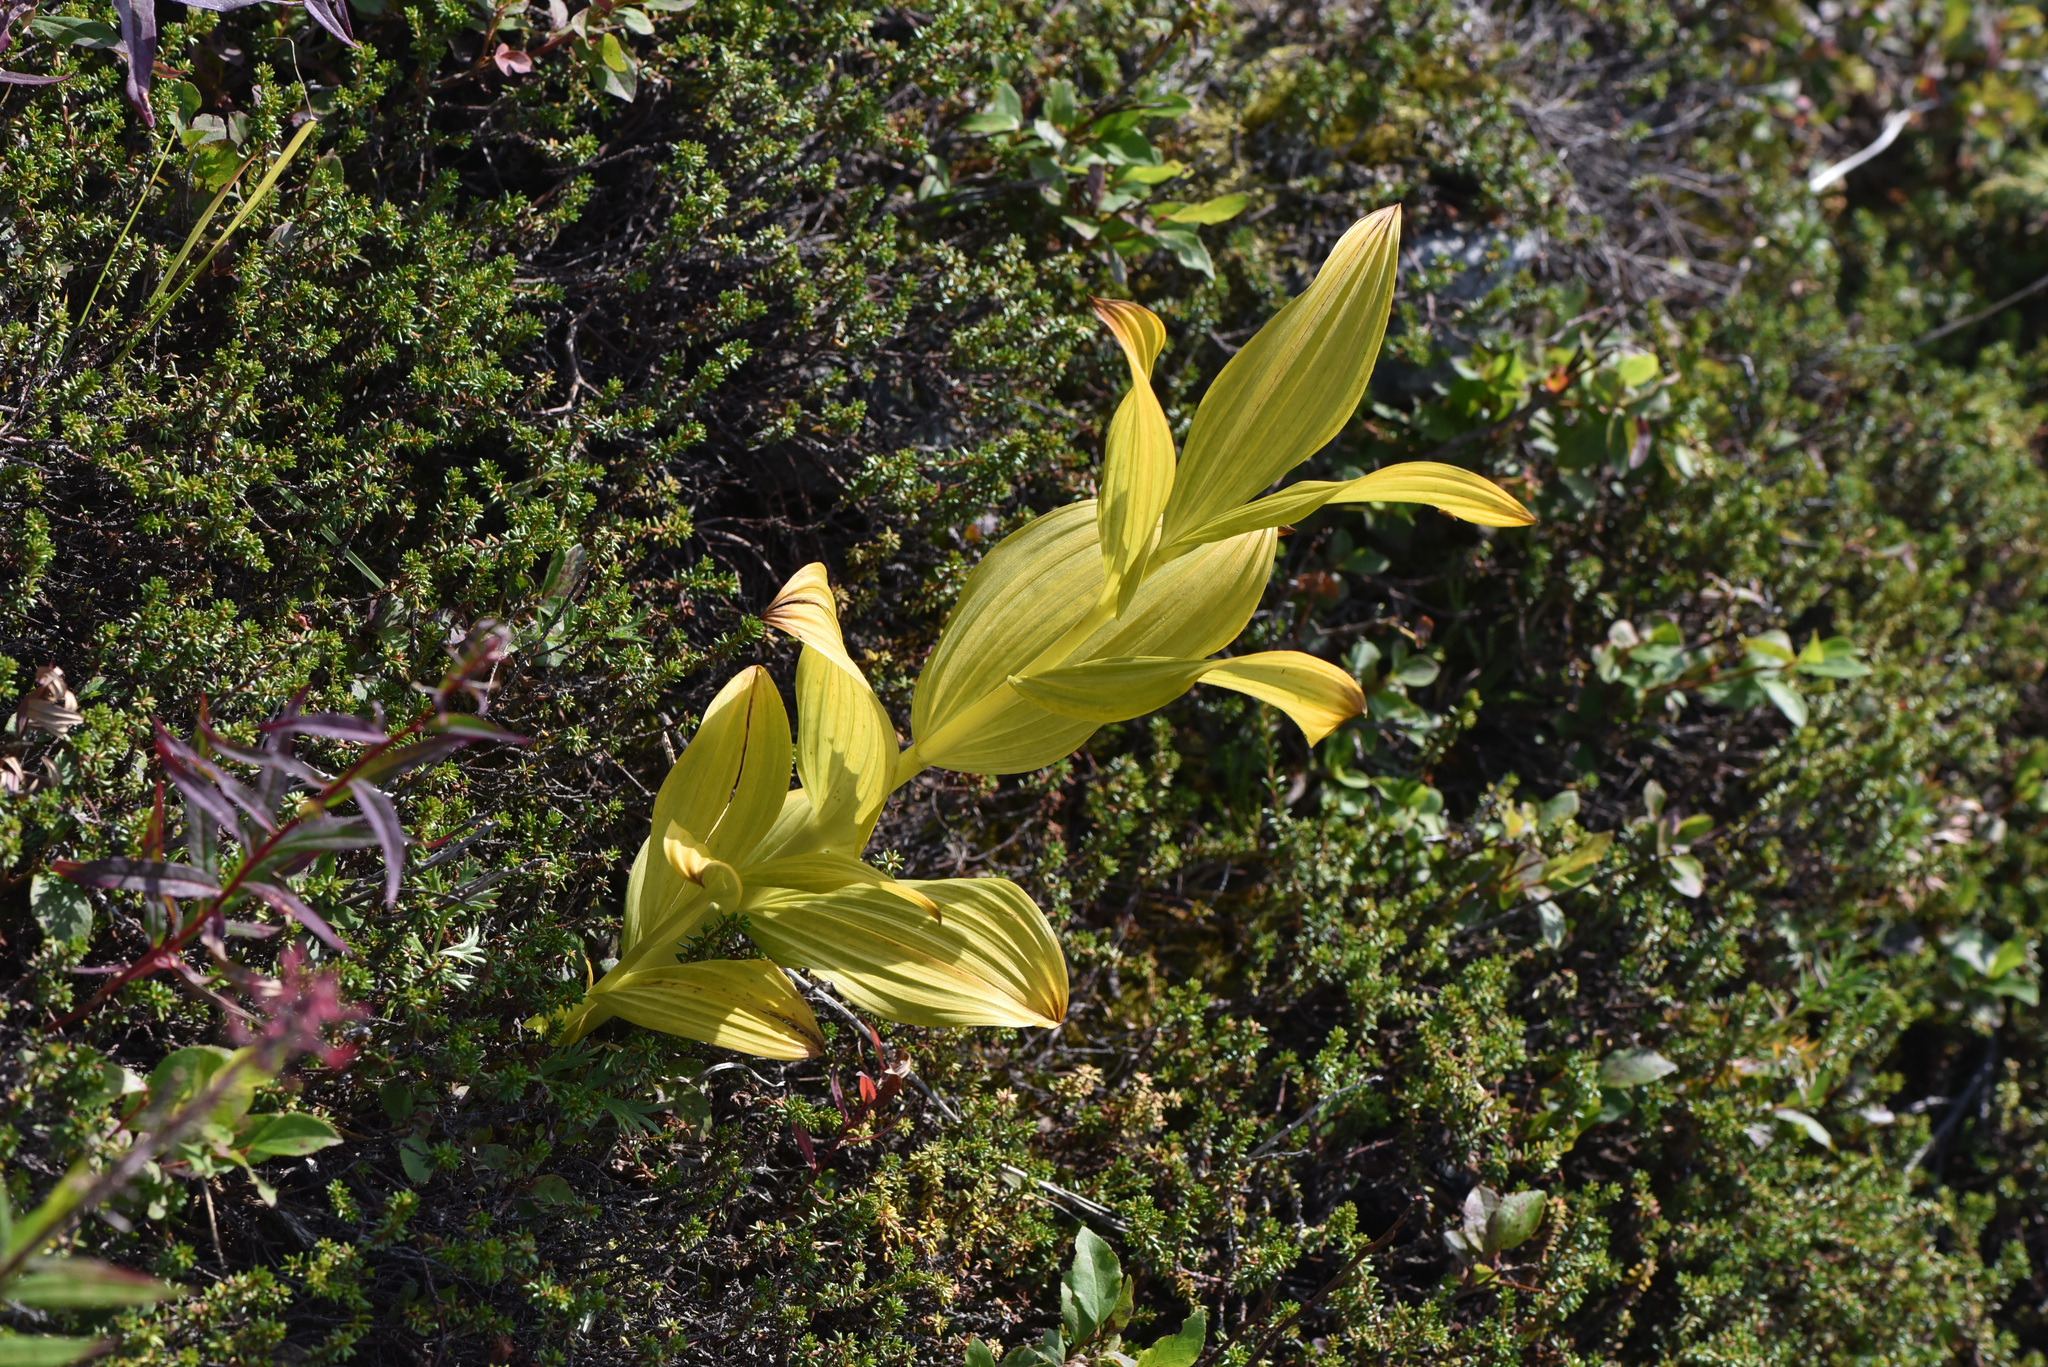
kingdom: Plantae
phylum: Tracheophyta
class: Liliopsida
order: Liliales
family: Melanthiaceae
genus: Veratrum
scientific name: Veratrum viride
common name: American false hellebore
